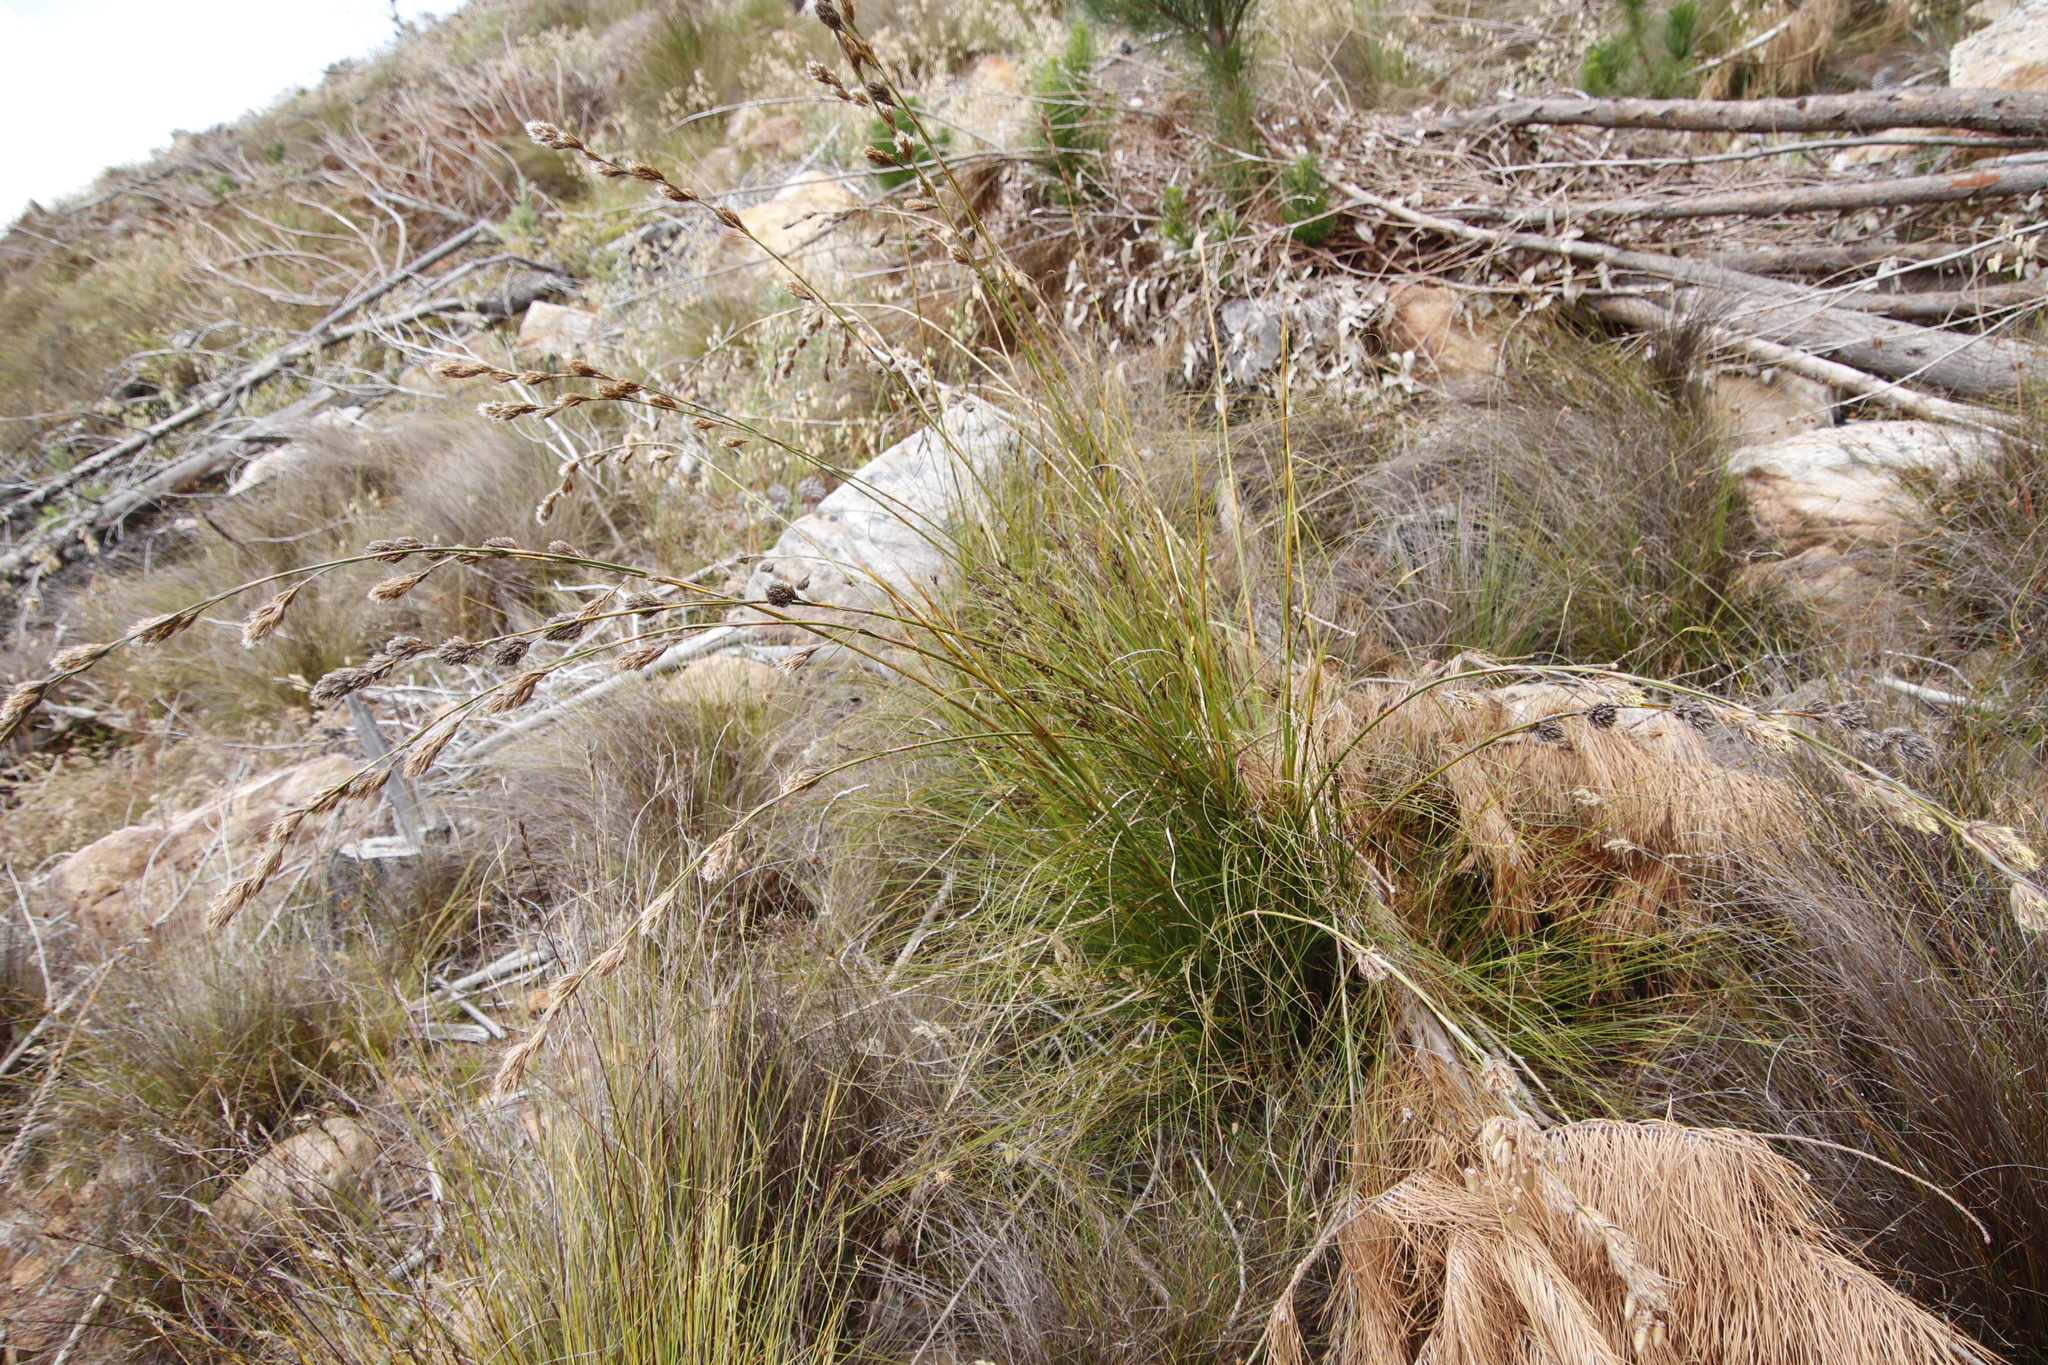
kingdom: Plantae
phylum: Tracheophyta
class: Liliopsida
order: Poales
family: Cyperaceae
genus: Tetraria
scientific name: Tetraria bromoides
